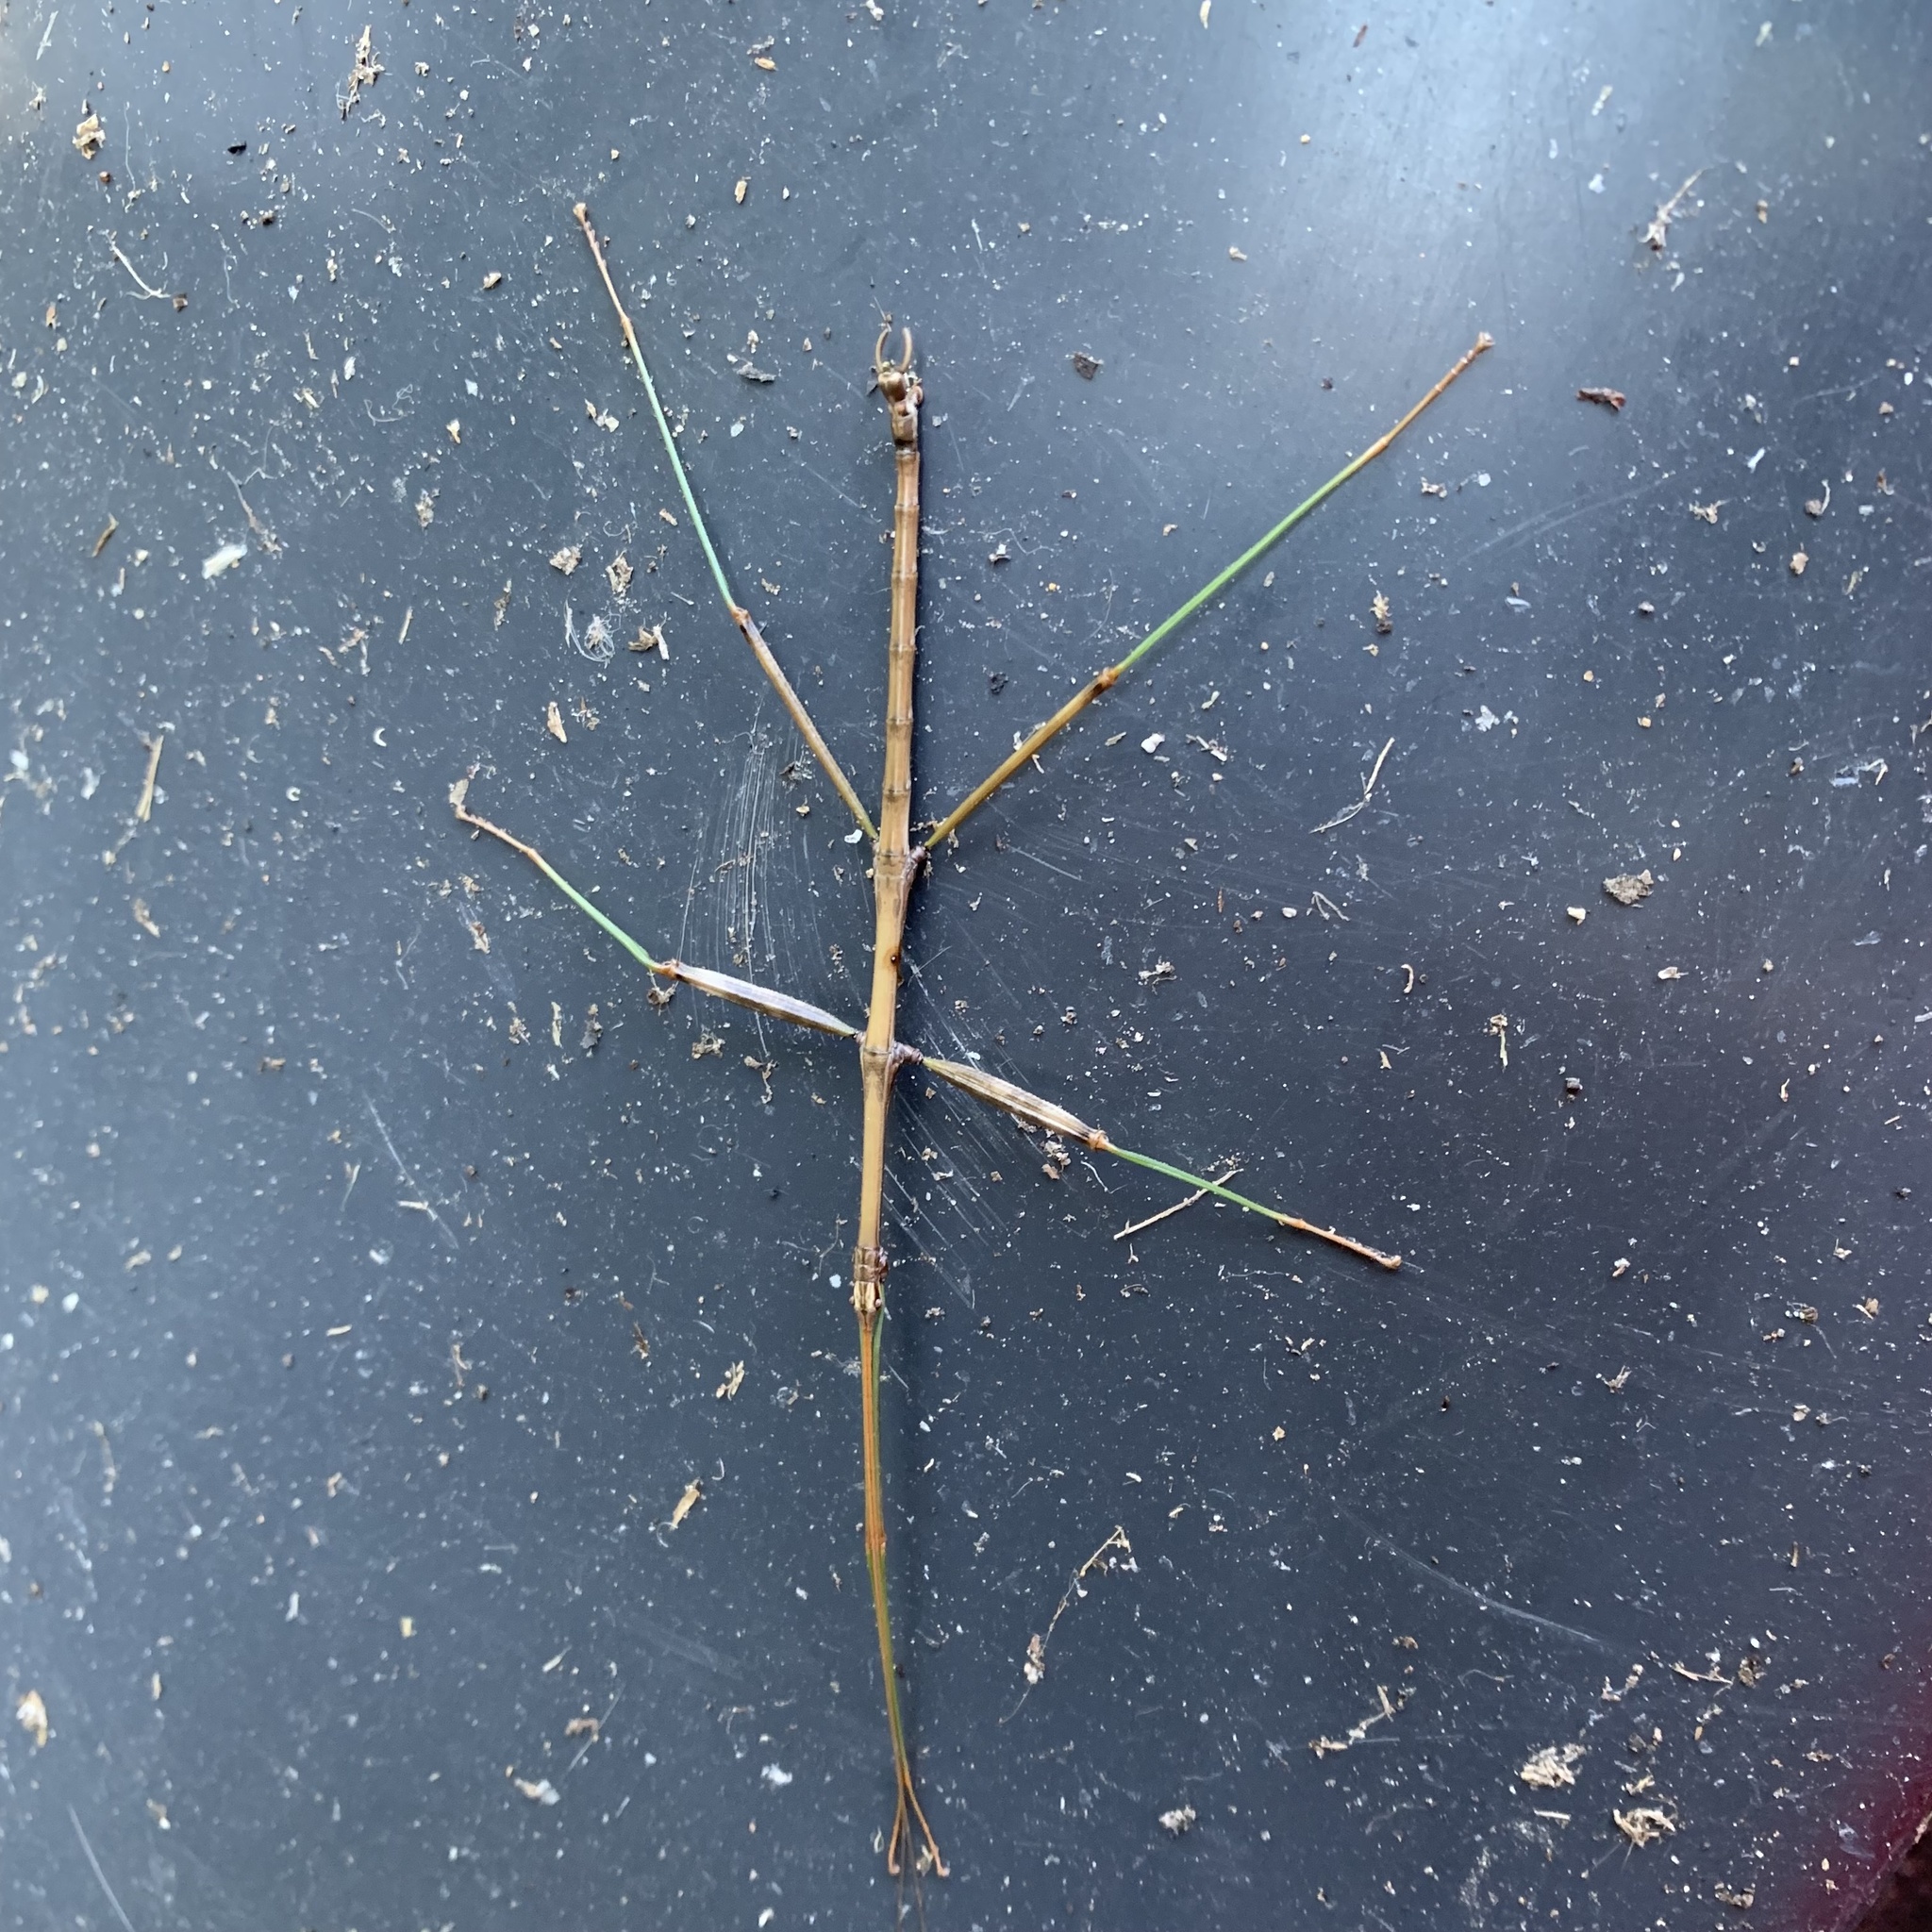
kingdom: Animalia
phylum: Arthropoda
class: Insecta
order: Phasmida
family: Diapheromeridae
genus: Diapheromera
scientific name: Diapheromera femorata
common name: Common american walkingstick
